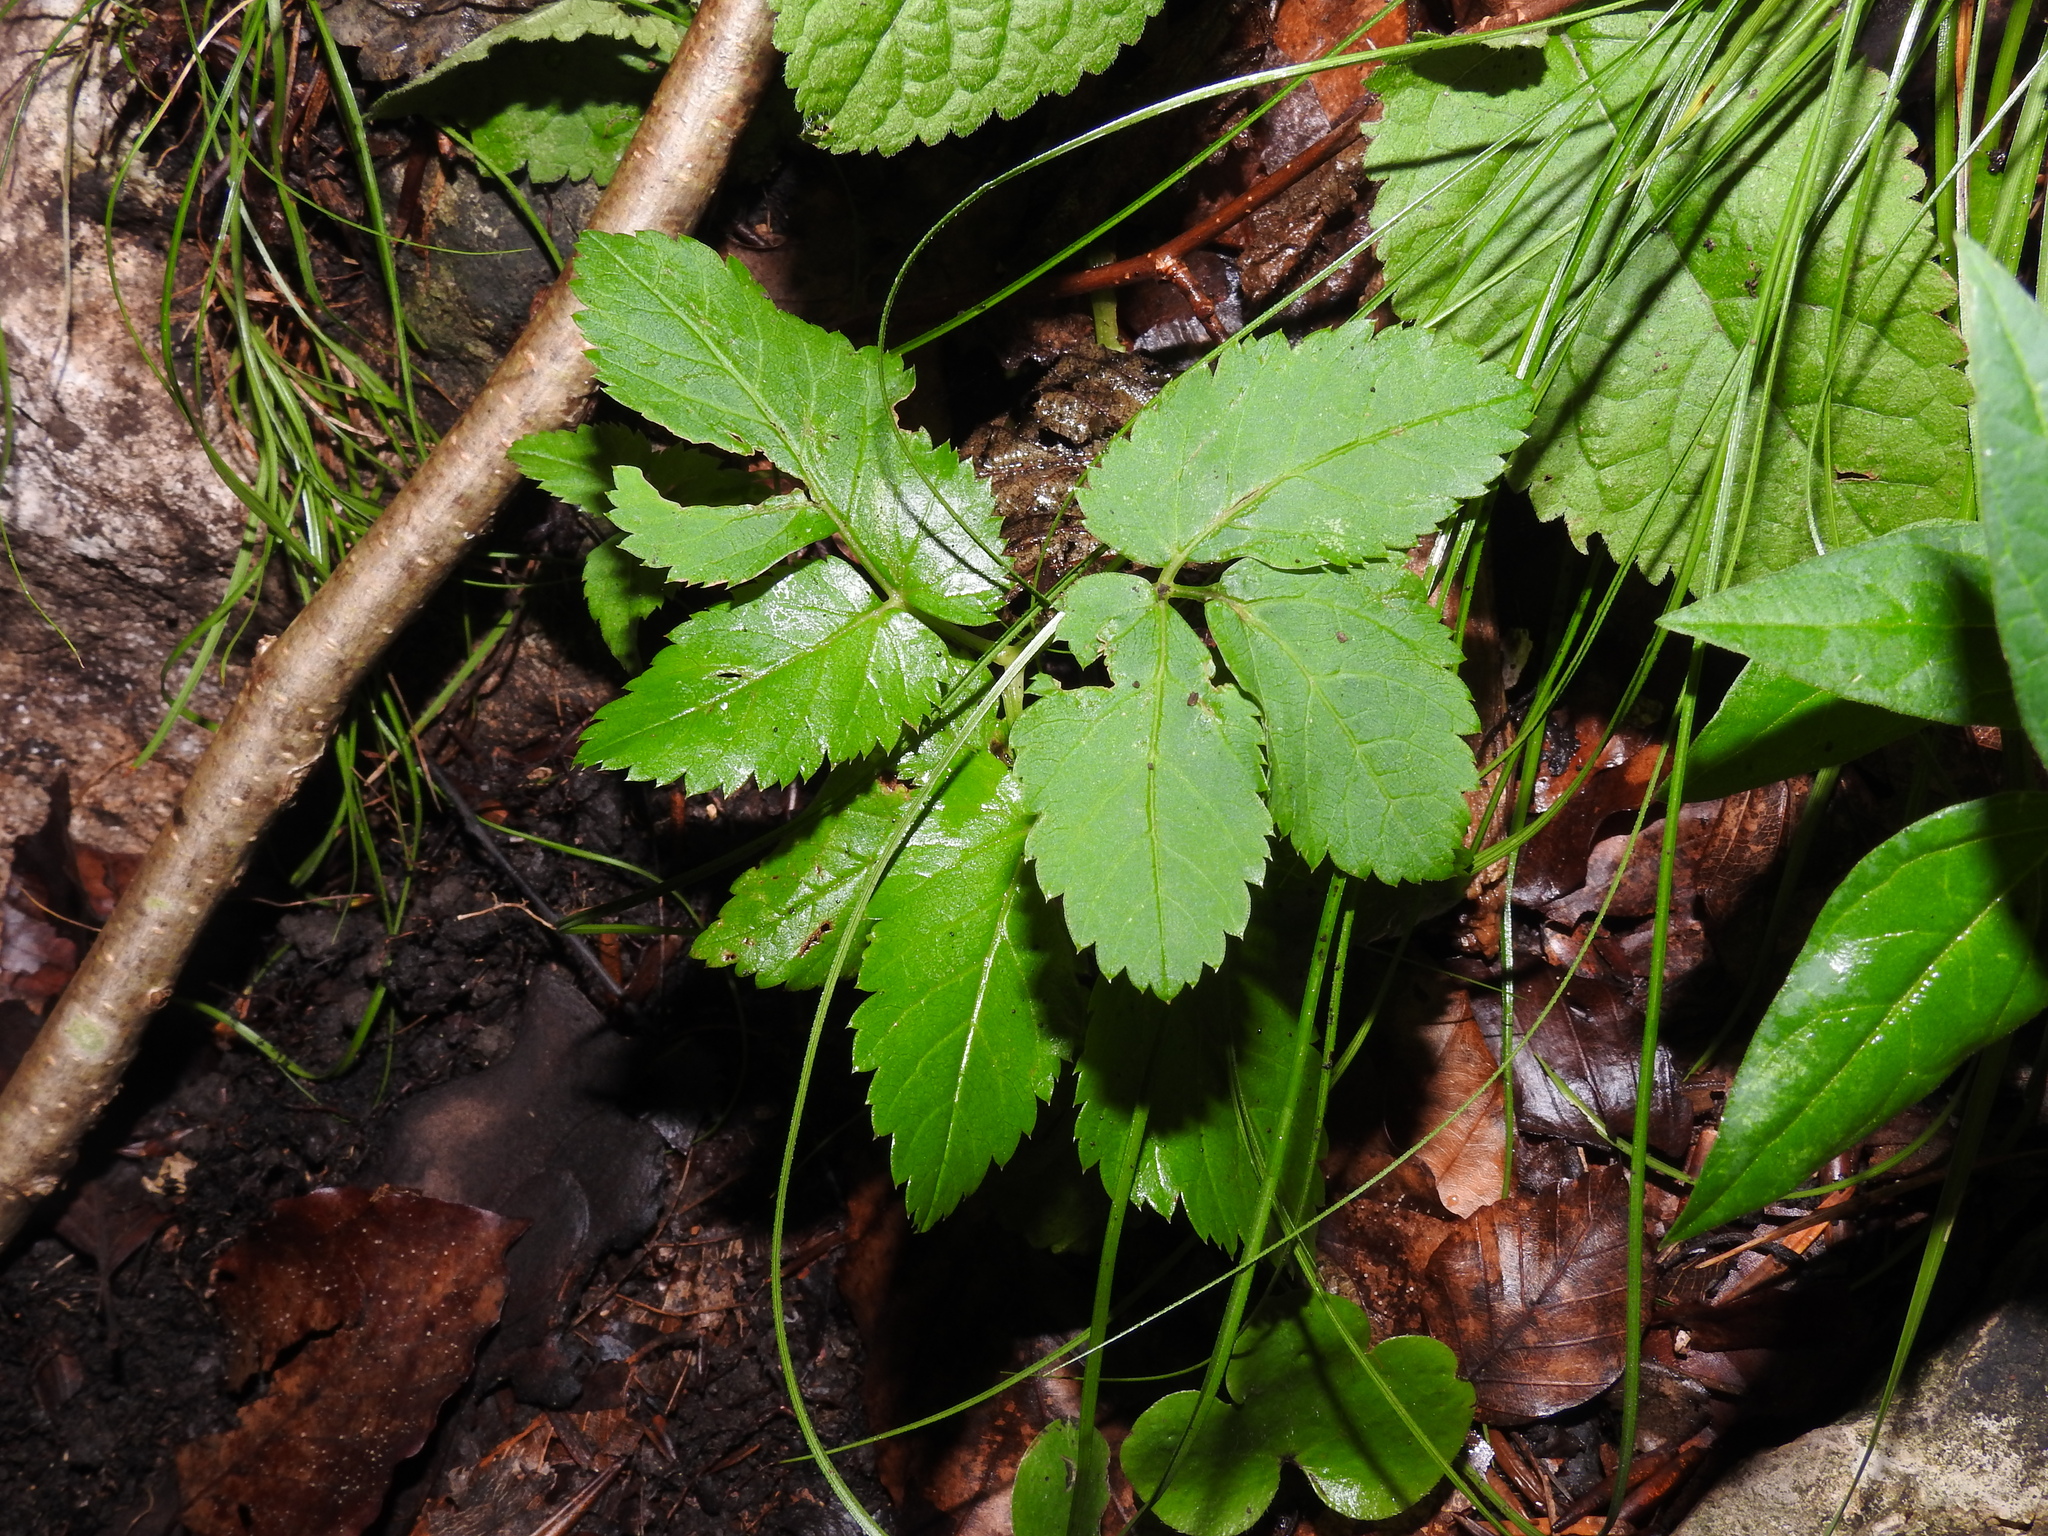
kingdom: Plantae
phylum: Tracheophyta
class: Magnoliopsida
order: Apiales
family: Apiaceae
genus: Aegopodium
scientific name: Aegopodium podagraria
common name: Ground-elder
